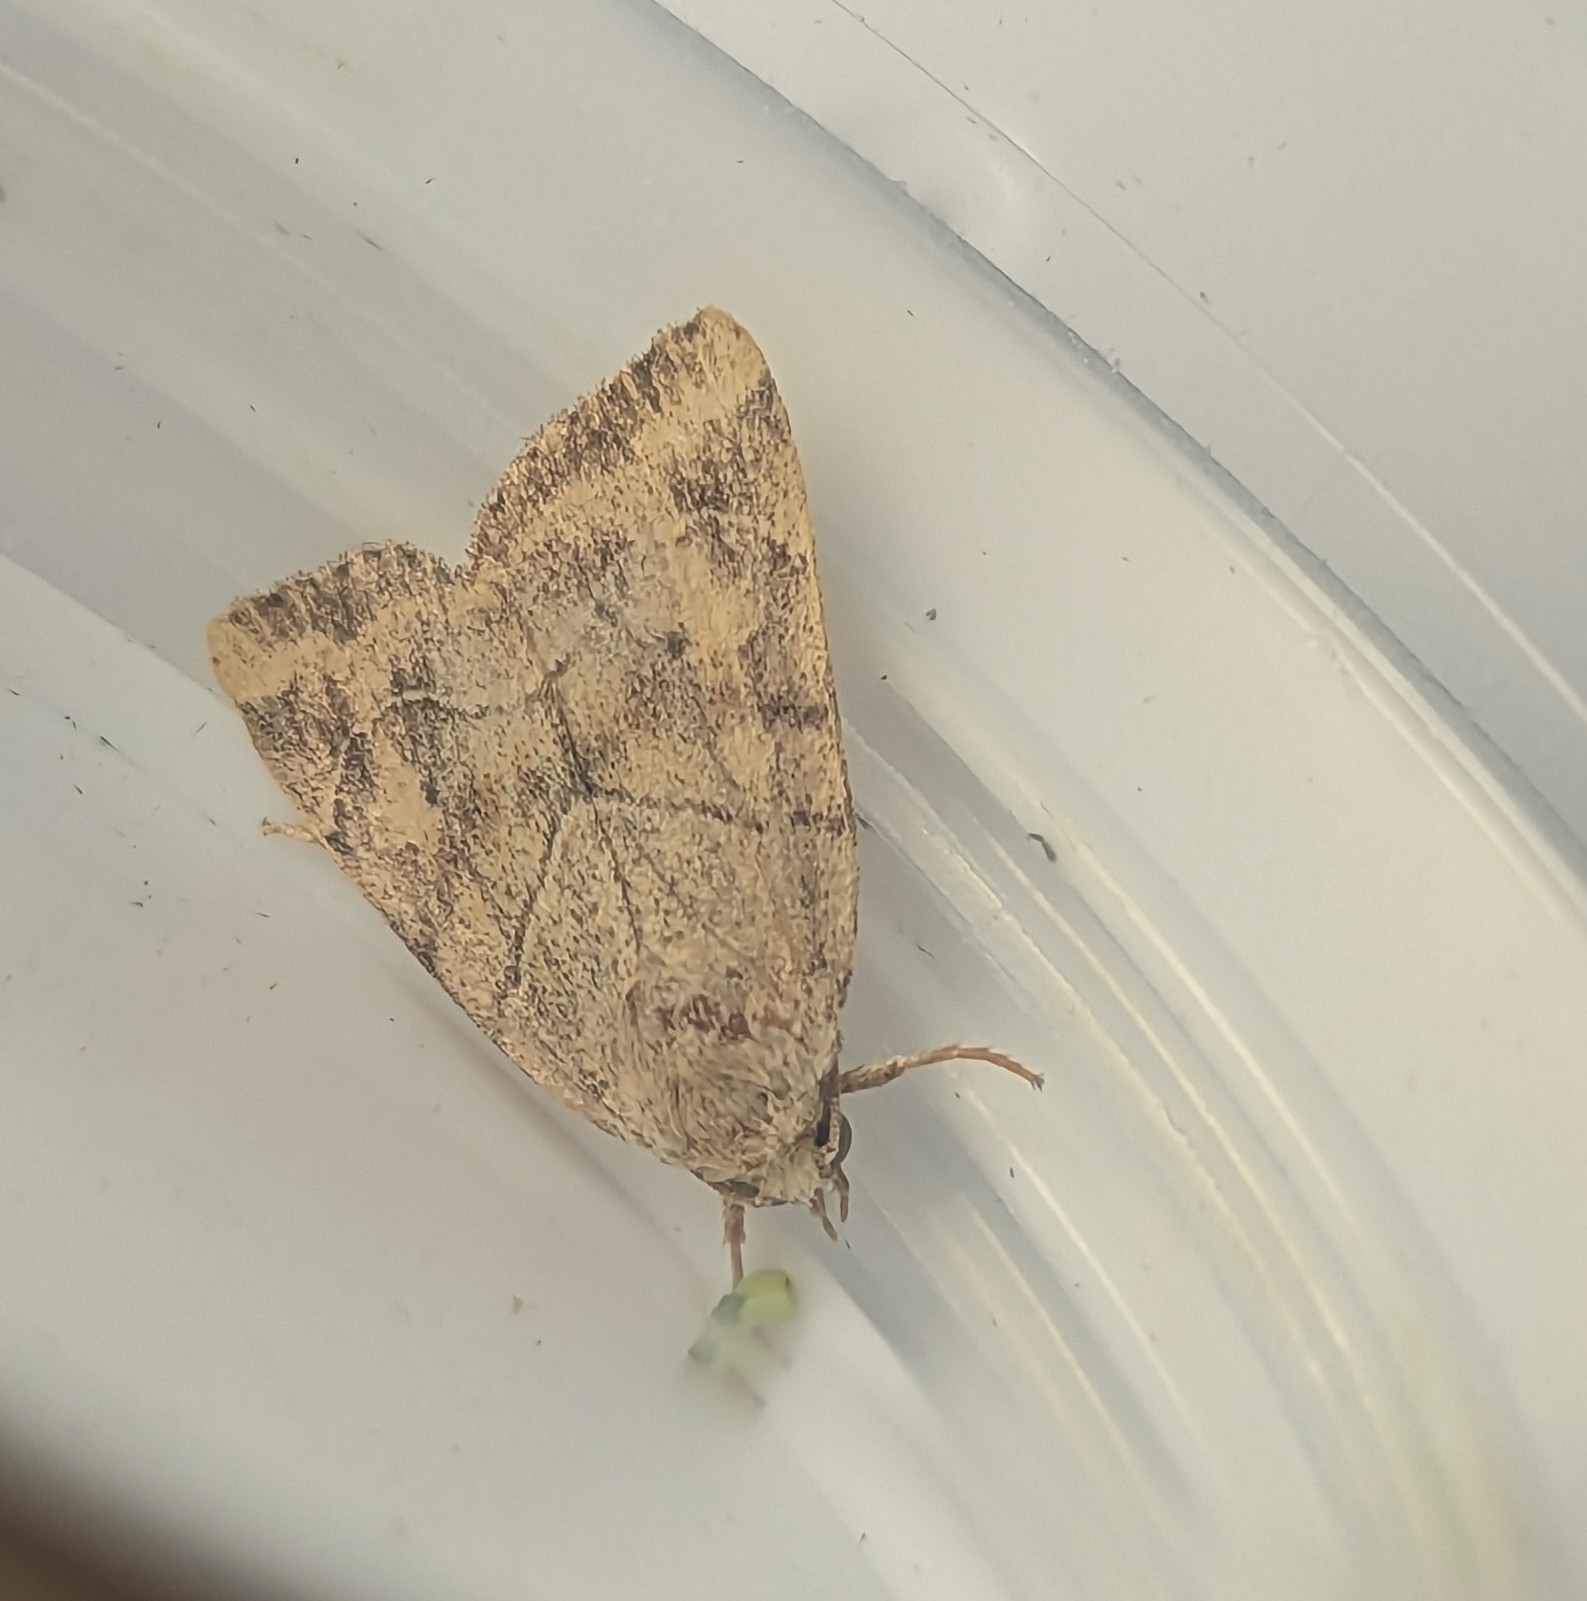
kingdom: Animalia
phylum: Arthropoda
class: Insecta
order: Lepidoptera
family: Noctuidae
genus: Cosmia
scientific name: Cosmia trapezina
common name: Dun-bar
